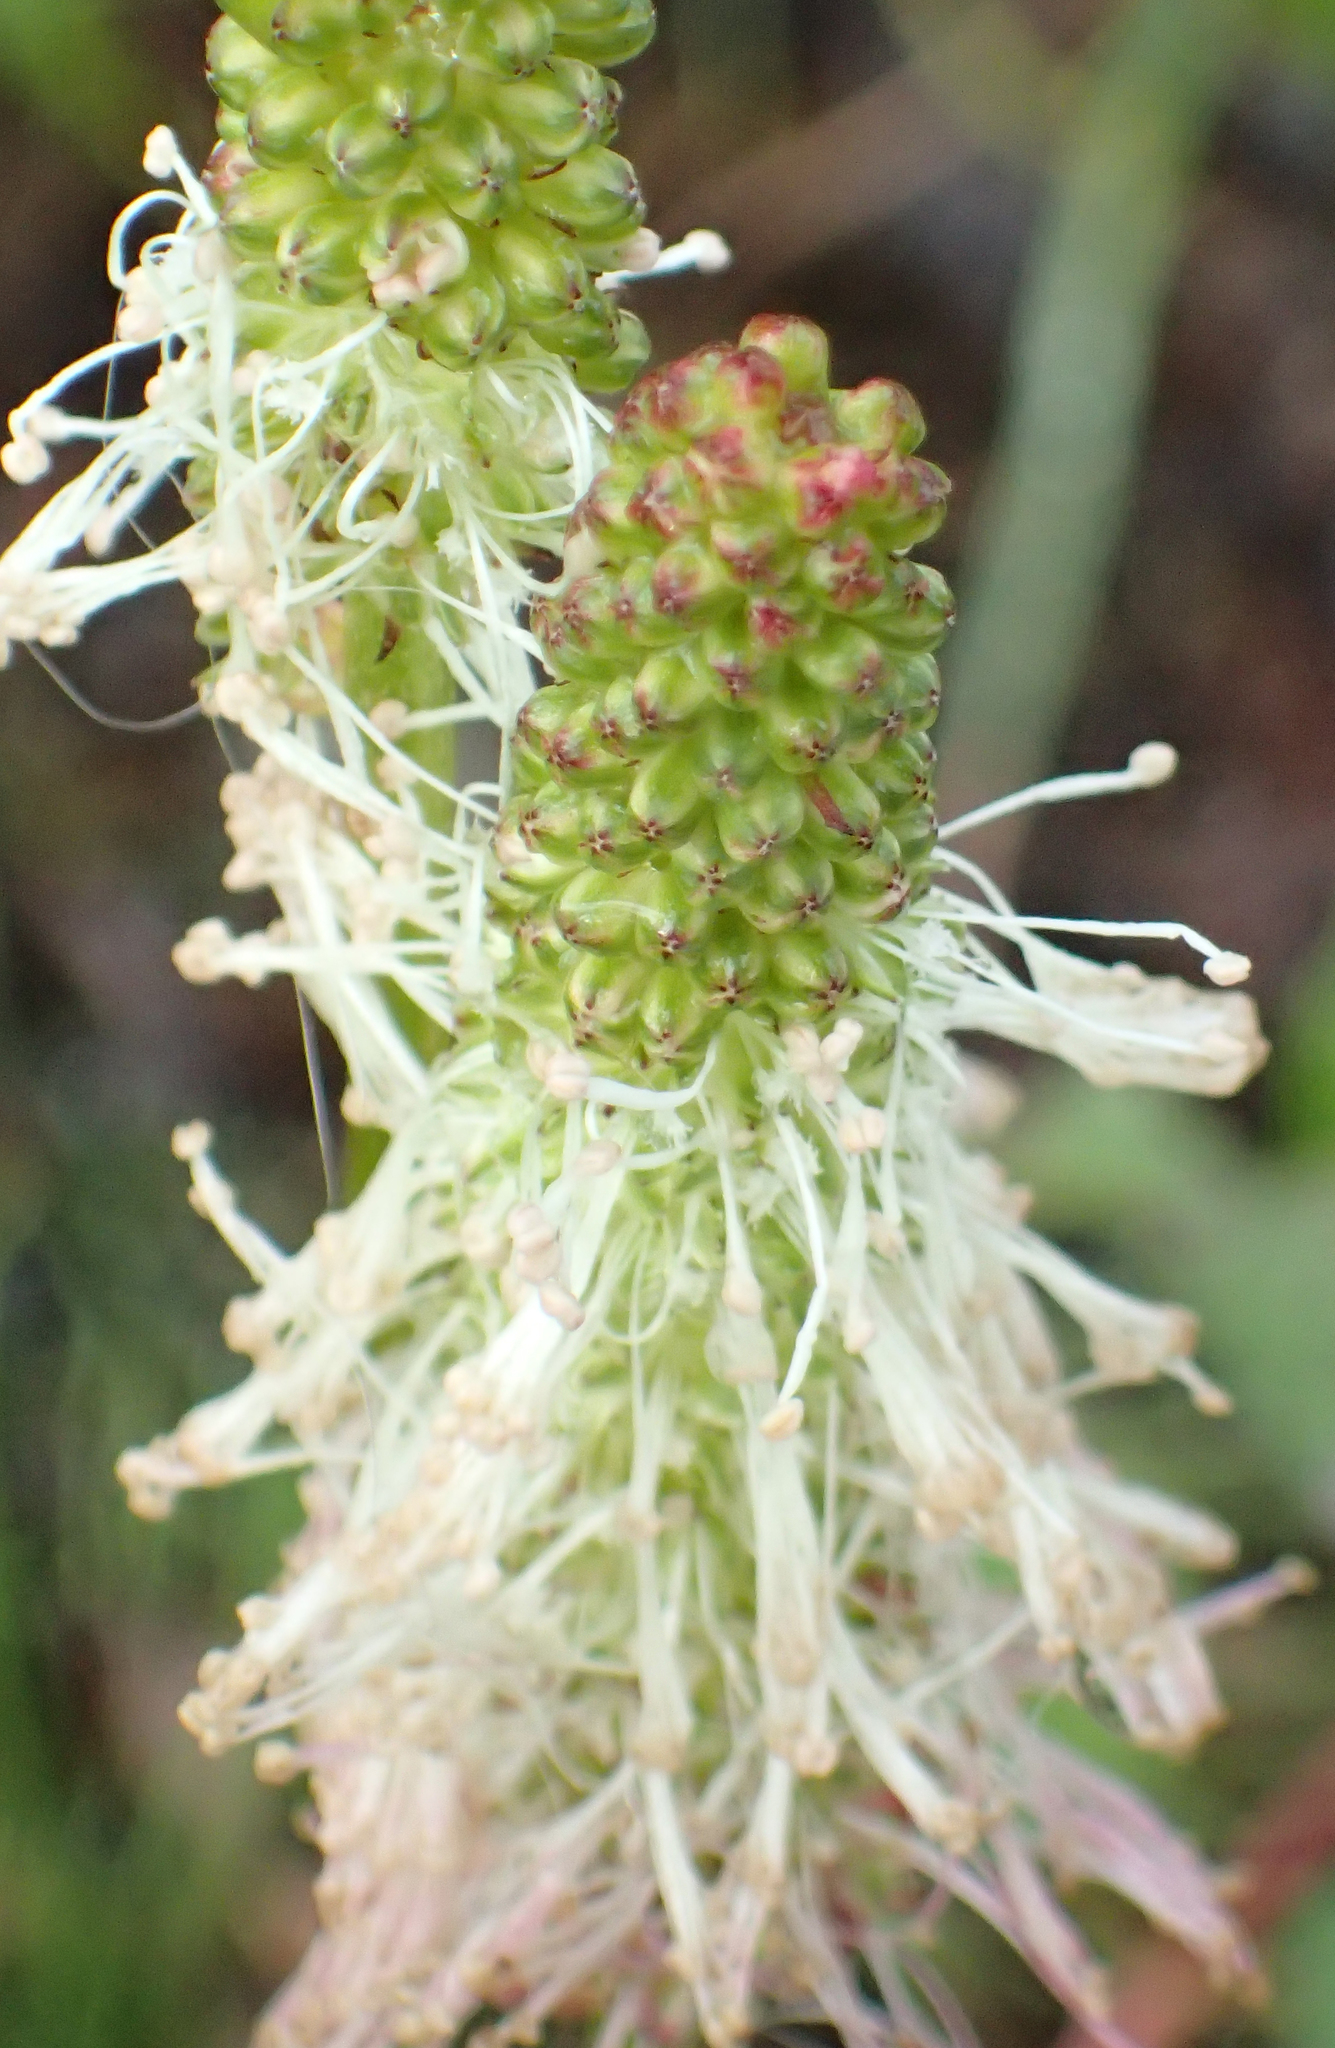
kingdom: Plantae
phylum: Tracheophyta
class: Magnoliopsida
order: Rosales
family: Rosaceae
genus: Sanguisorba
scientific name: Sanguisorba stipulata
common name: Sitka burnet
